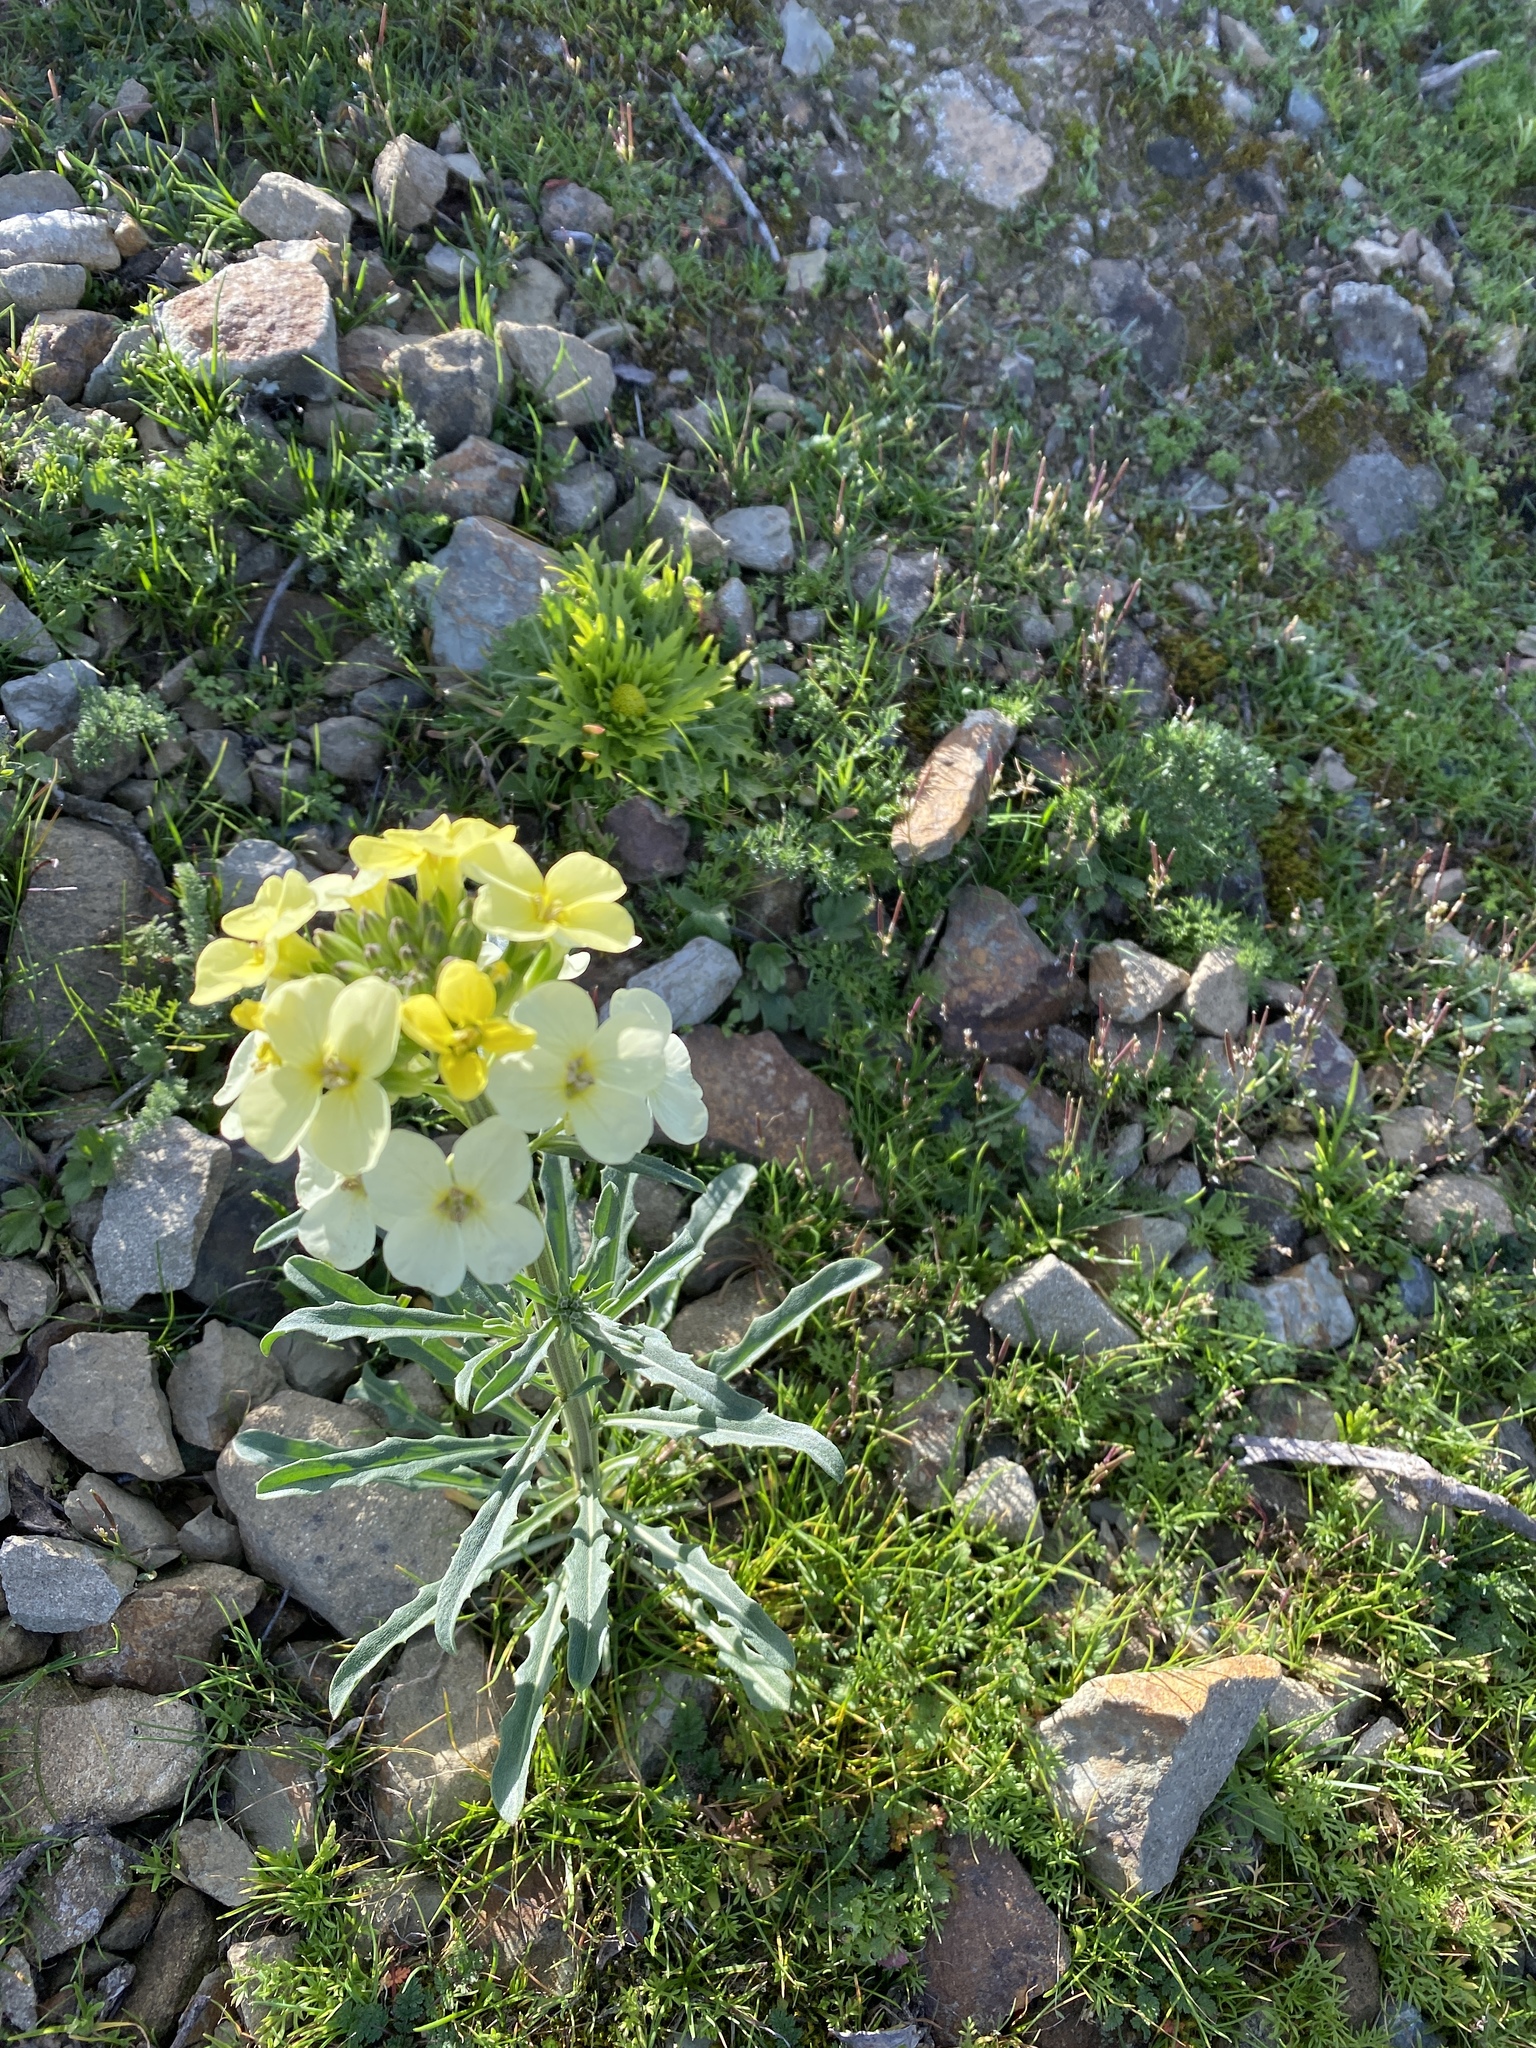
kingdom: Plantae
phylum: Tracheophyta
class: Magnoliopsida
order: Brassicales
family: Brassicaceae
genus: Erysimum
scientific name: Erysimum franciscanum
